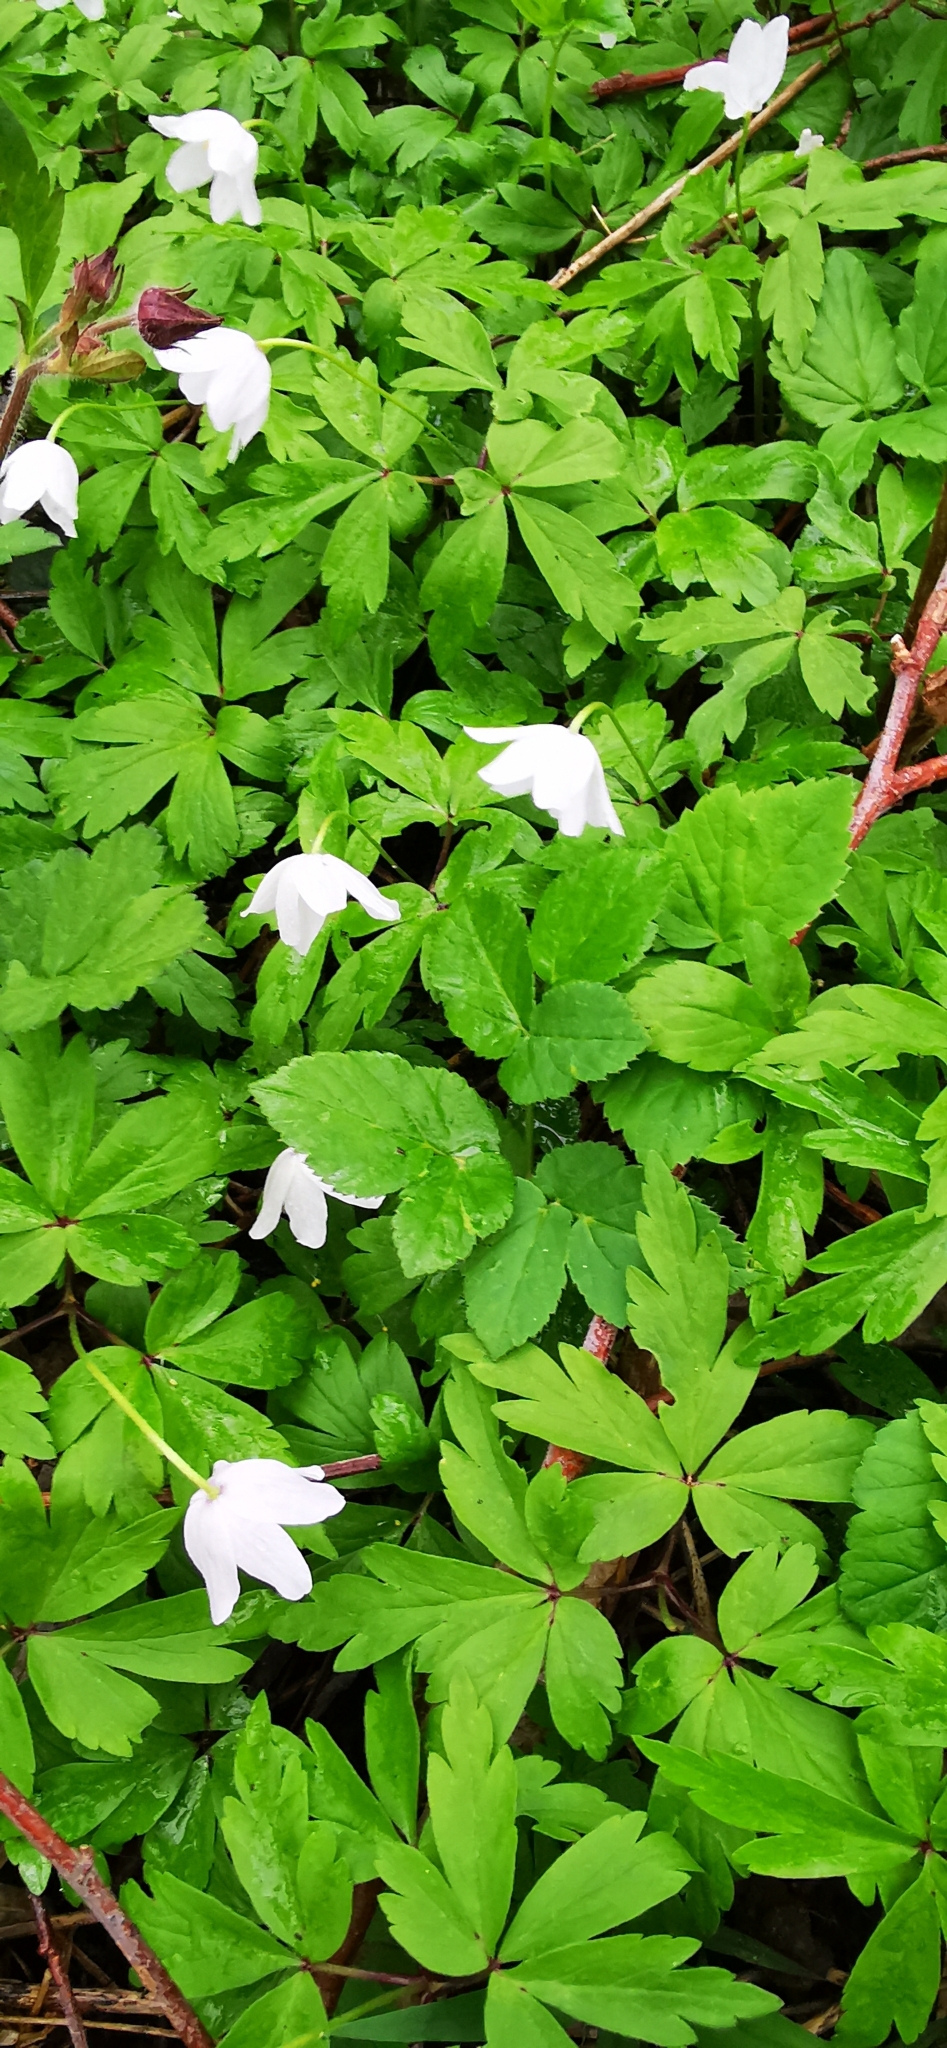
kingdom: Plantae
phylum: Tracheophyta
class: Magnoliopsida
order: Ranunculales
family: Ranunculaceae
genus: Anemone
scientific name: Anemone nemorosa
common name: Wood anemone
